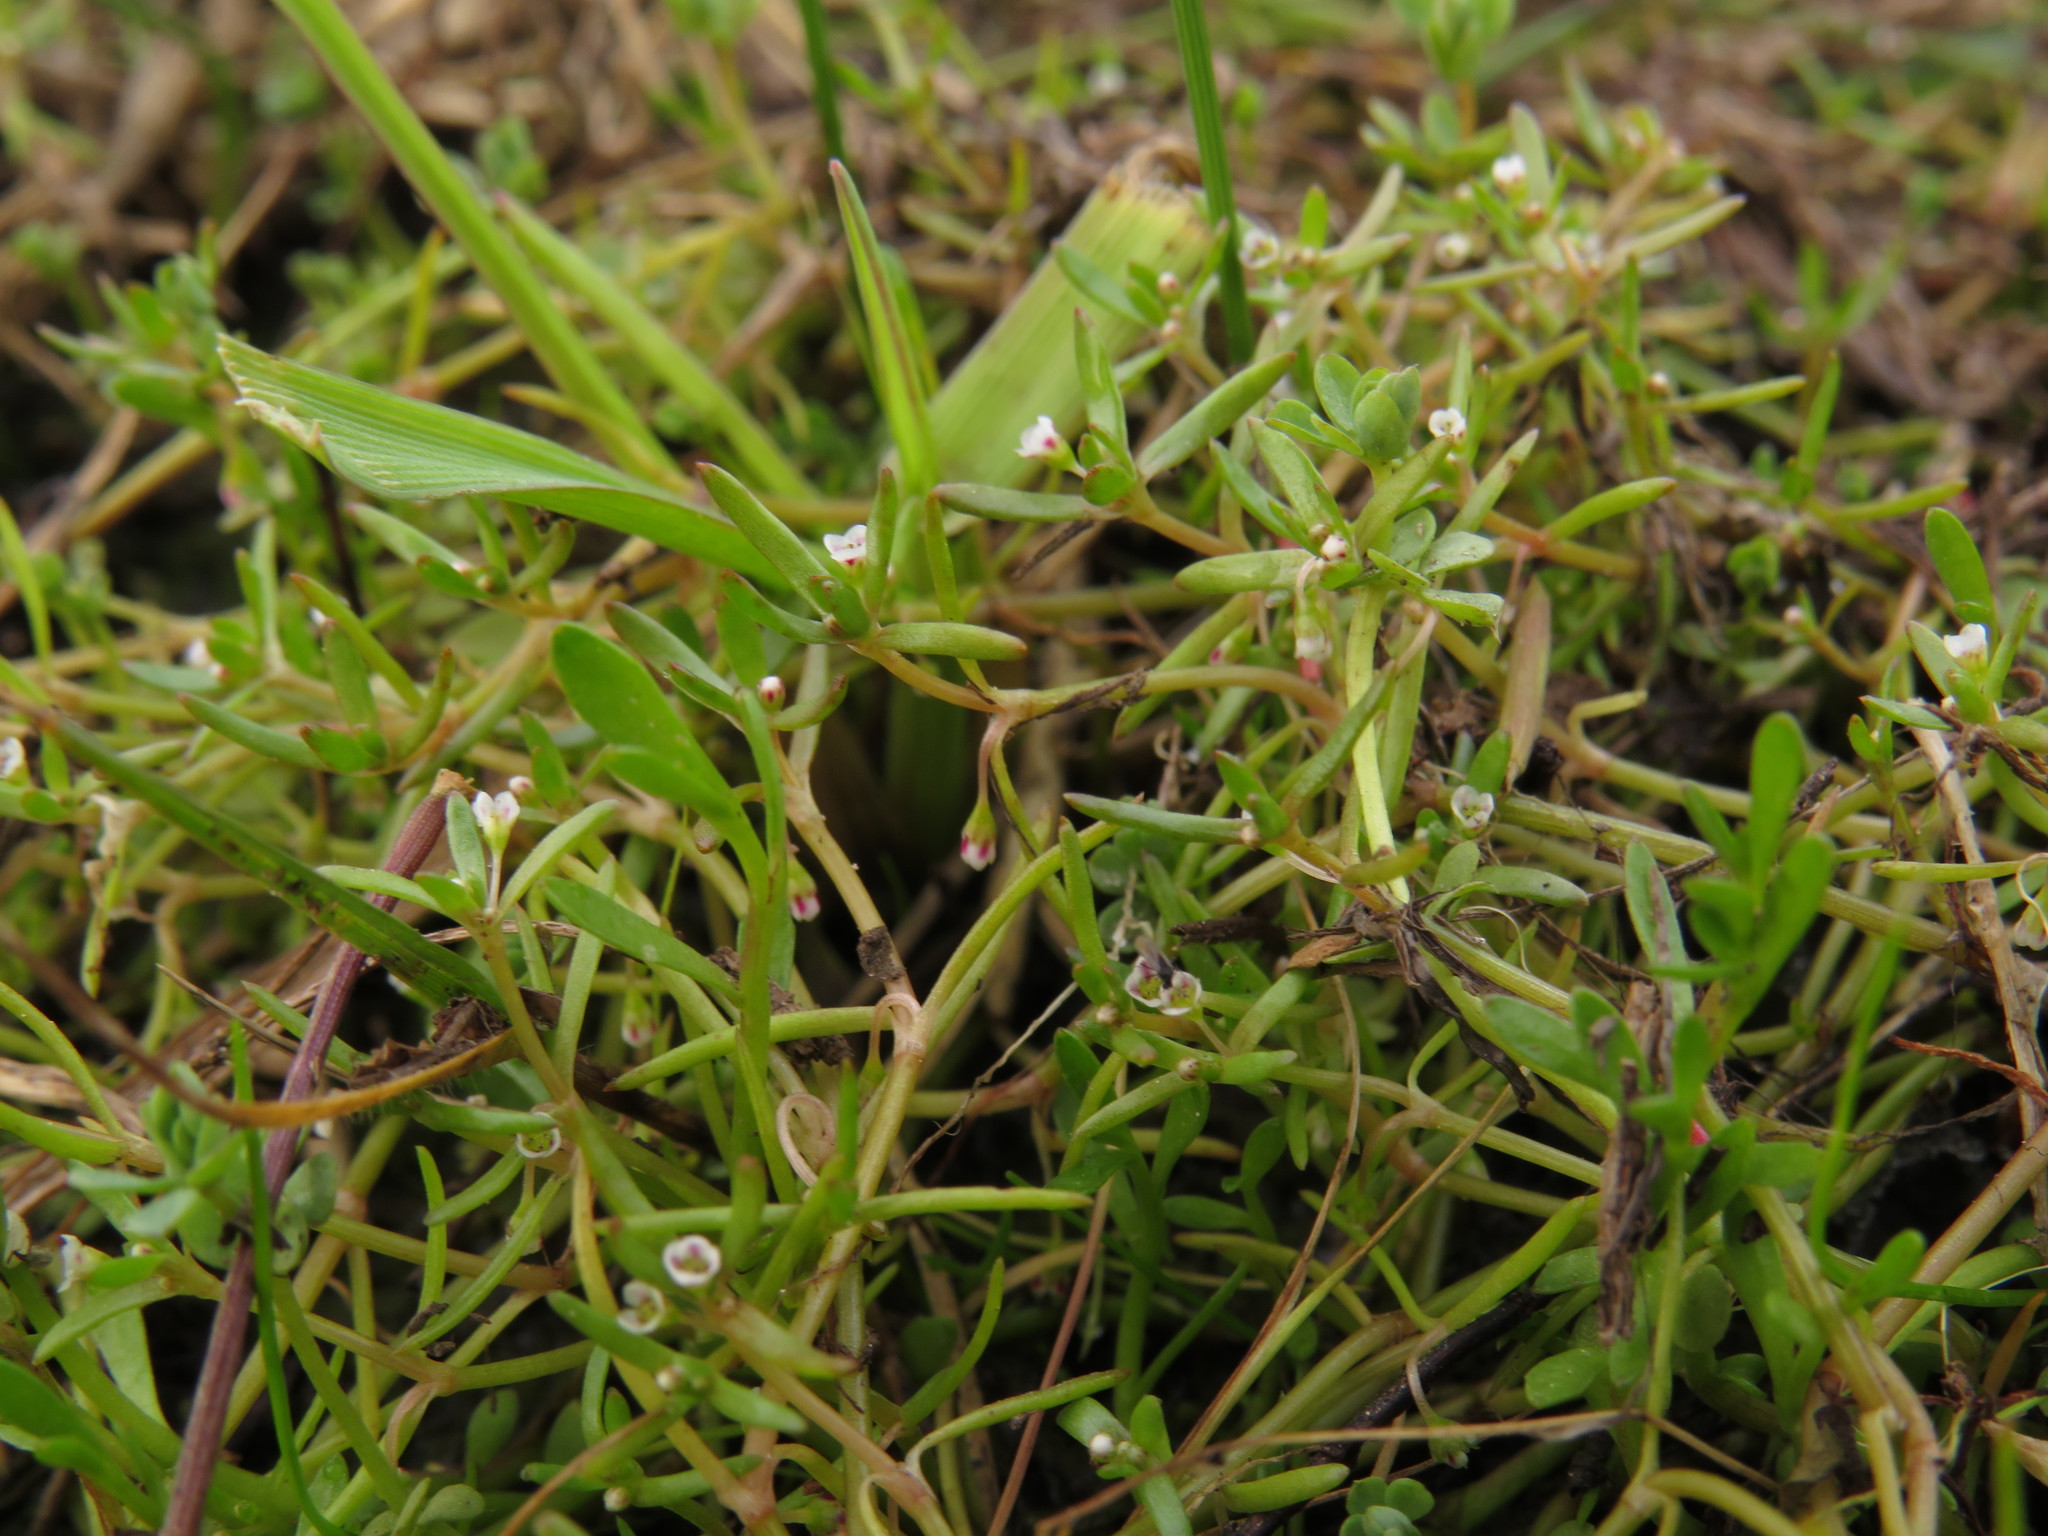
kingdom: Plantae
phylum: Tracheophyta
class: Magnoliopsida
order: Saxifragales
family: Crassulaceae
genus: Crassula
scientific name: Crassula natans
